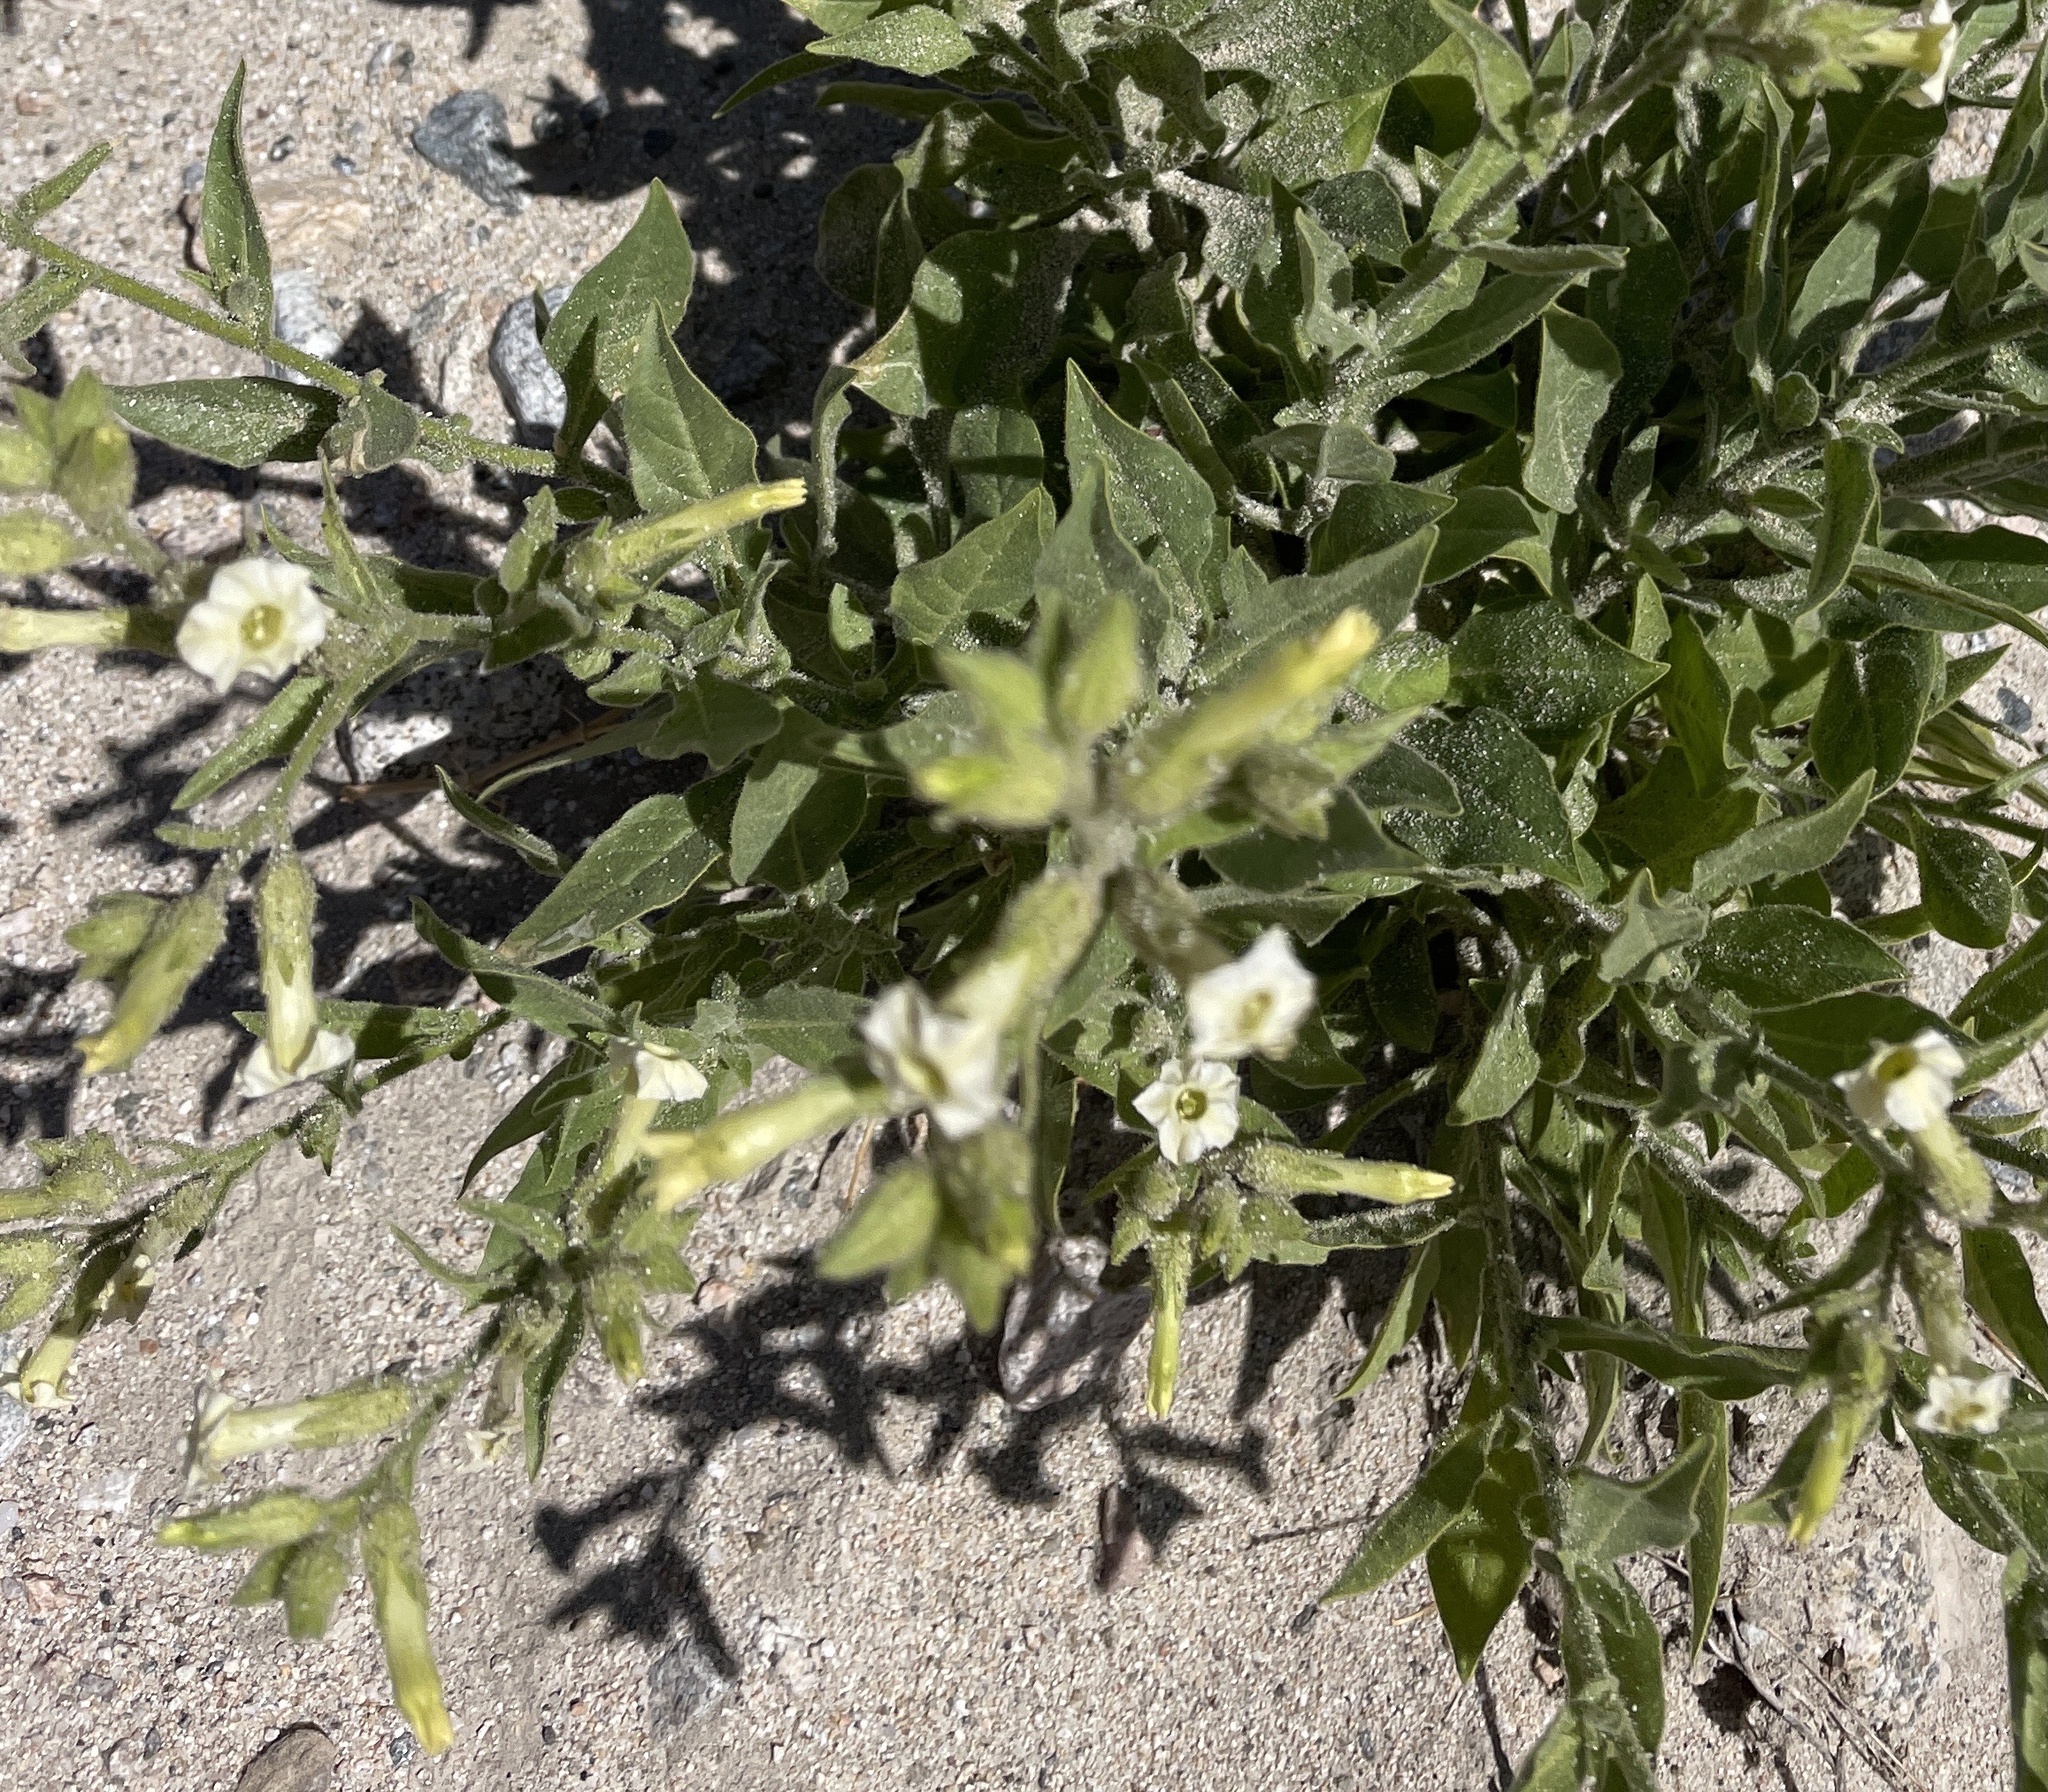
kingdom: Plantae
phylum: Tracheophyta
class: Magnoliopsida
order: Solanales
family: Solanaceae
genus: Nicotiana
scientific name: Nicotiana obtusifolia
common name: Desert tobacco
